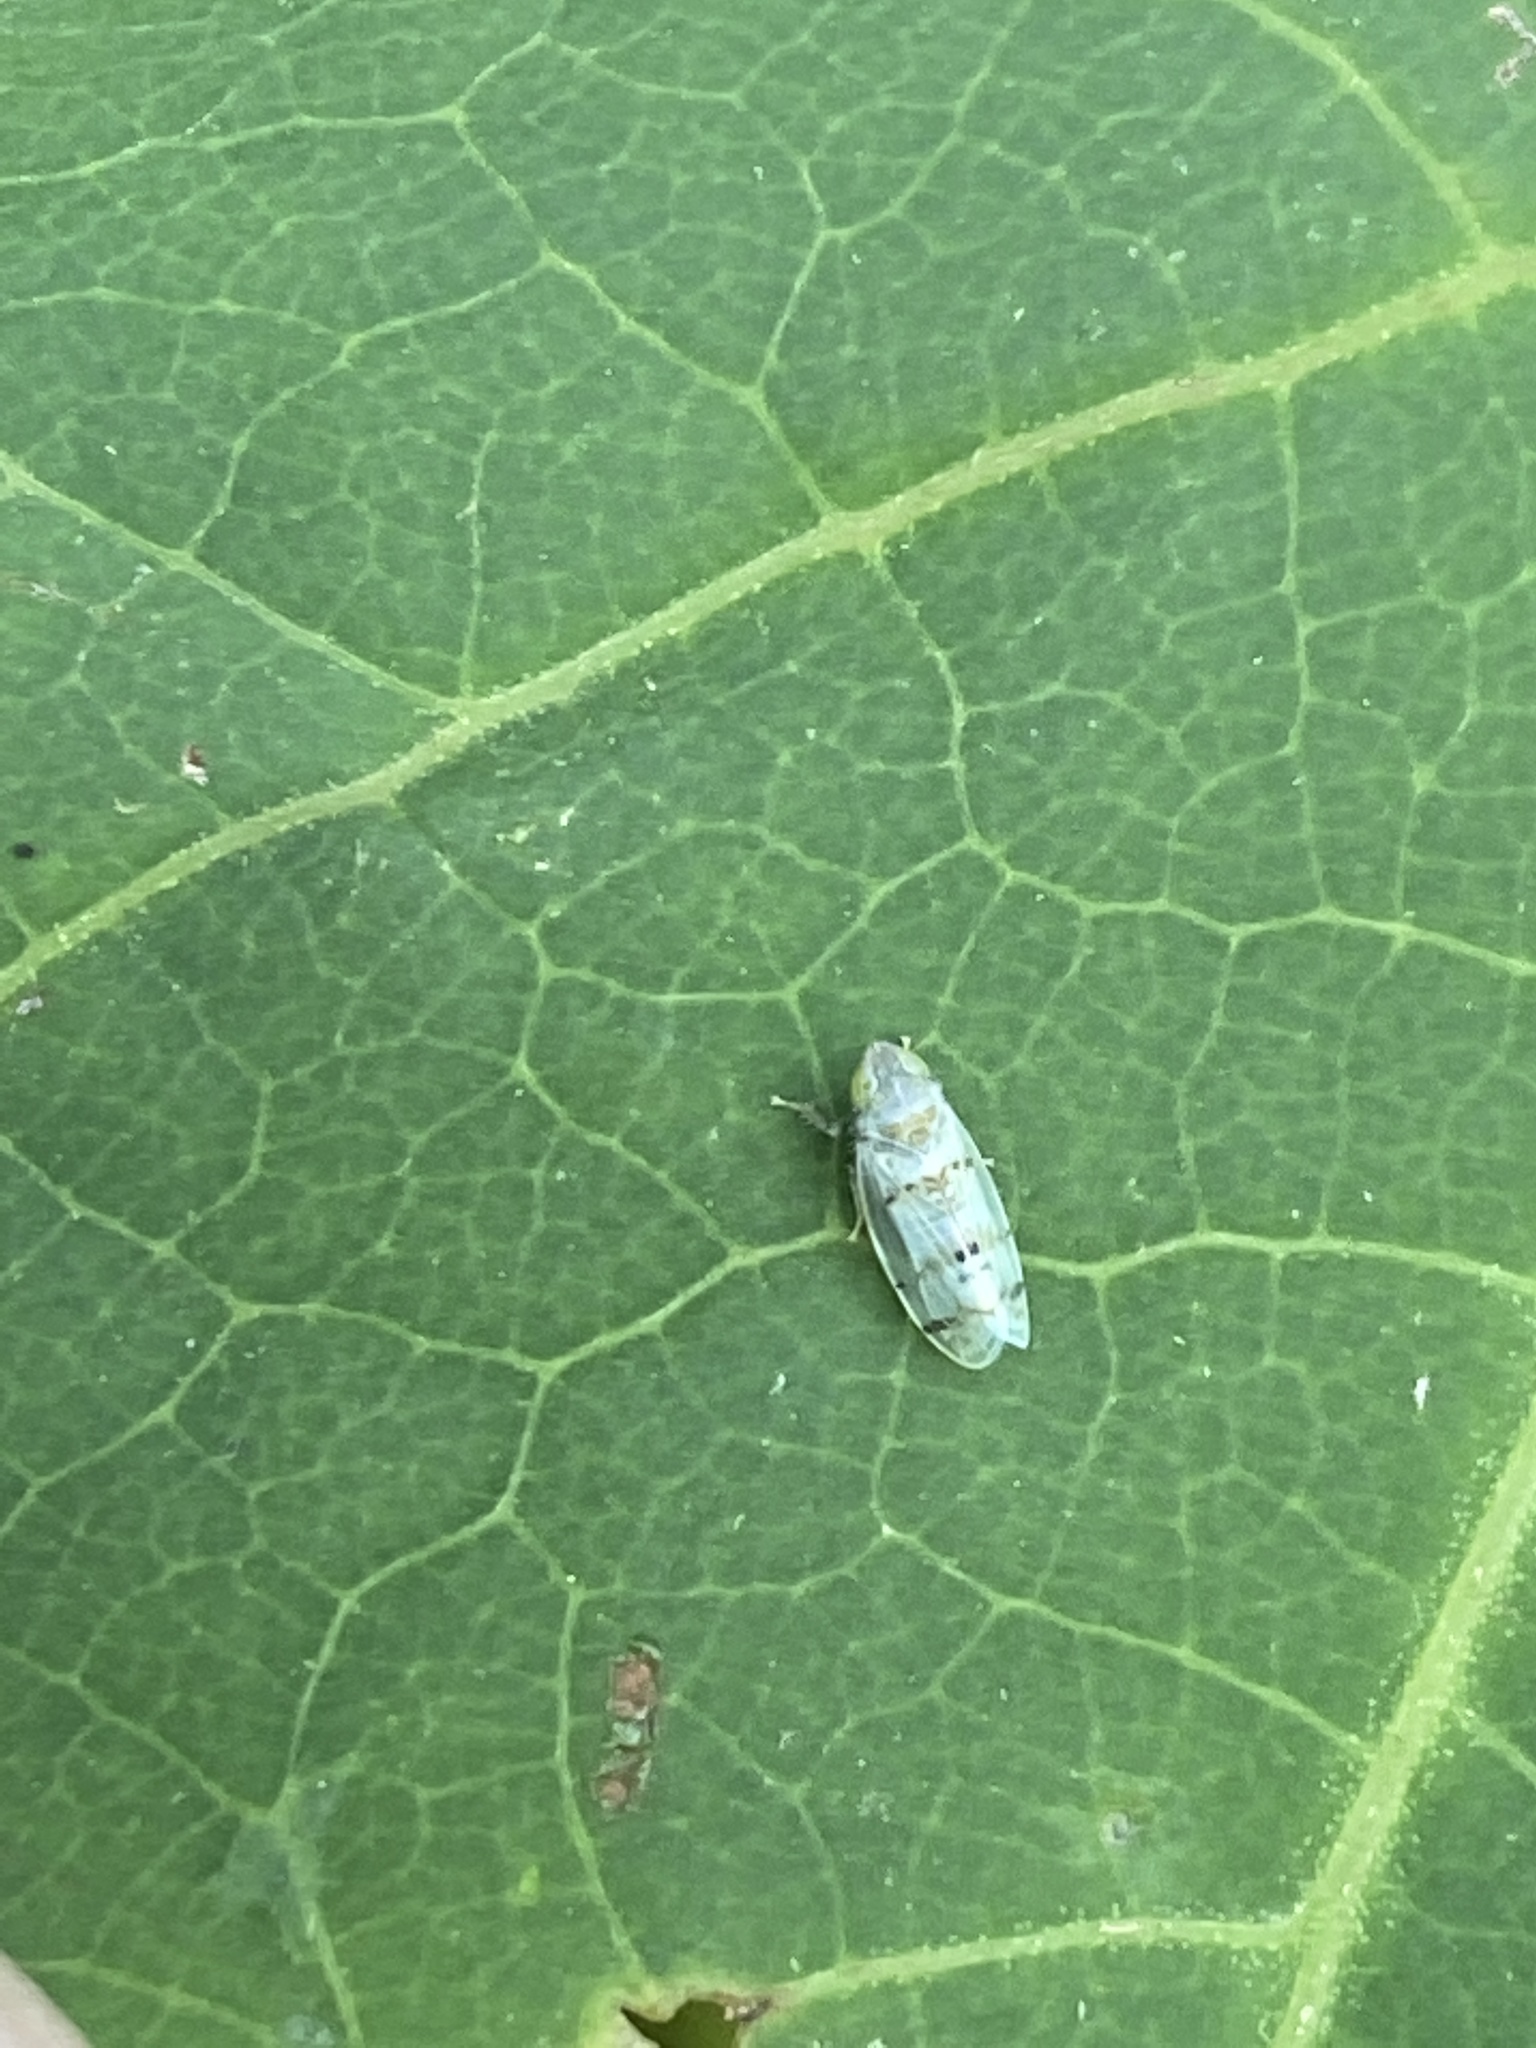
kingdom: Animalia
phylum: Arthropoda
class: Insecta
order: Hemiptera
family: Cicadellidae
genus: Japananus
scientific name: Japananus hyalinus
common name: The japanese maple leafhopper
